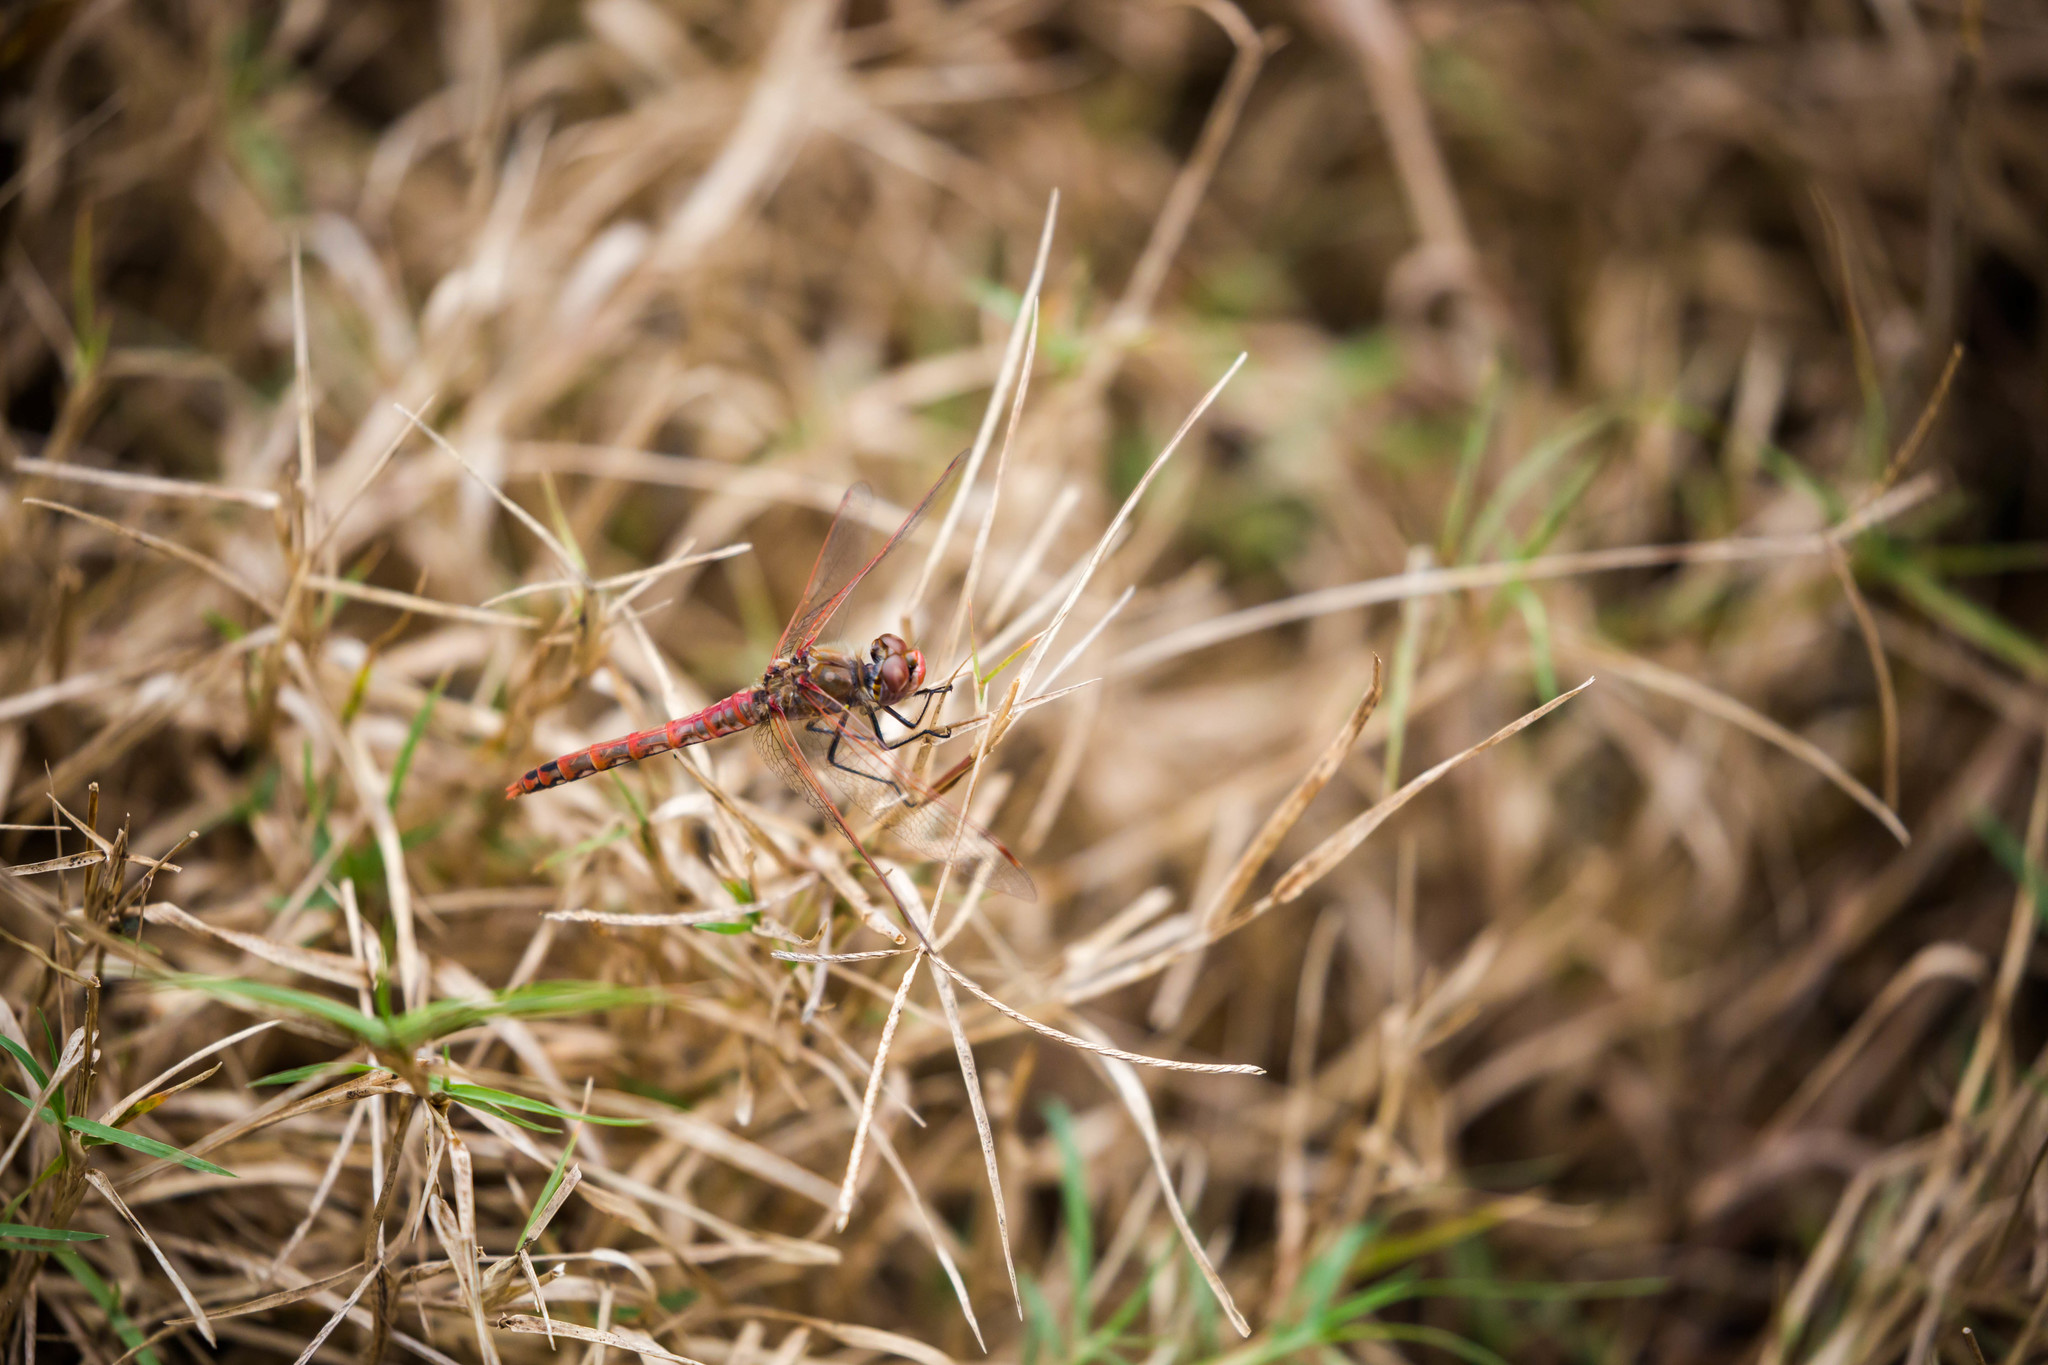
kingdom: Animalia
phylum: Arthropoda
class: Insecta
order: Odonata
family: Libellulidae
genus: Sympetrum
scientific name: Sympetrum corruptum
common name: Variegated meadowhawk
